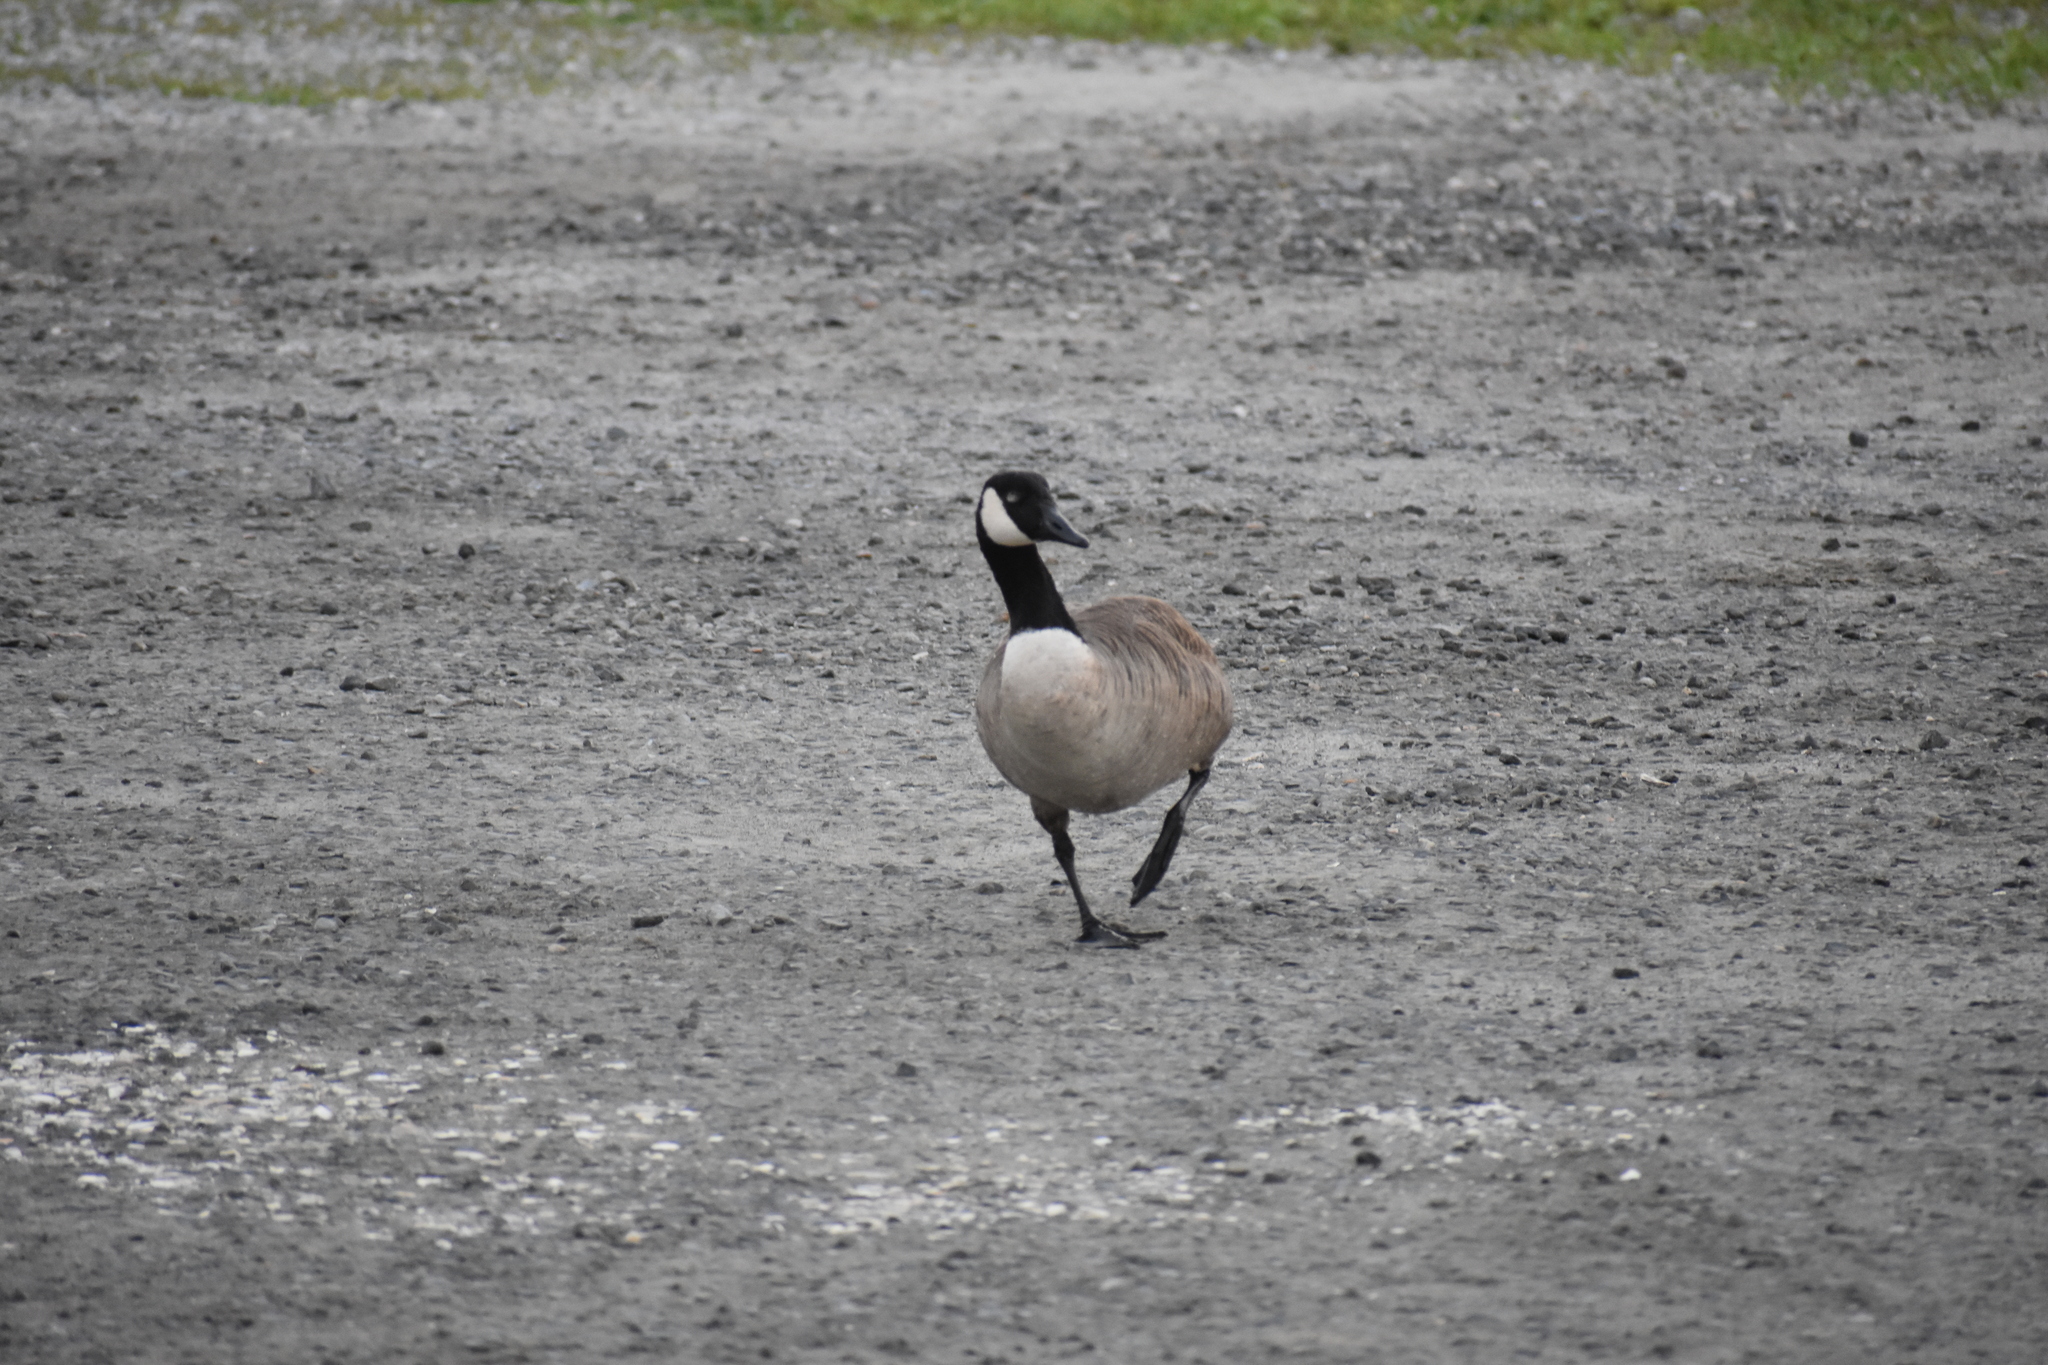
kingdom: Animalia
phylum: Chordata
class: Aves
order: Anseriformes
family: Anatidae
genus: Branta
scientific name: Branta canadensis
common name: Canada goose
